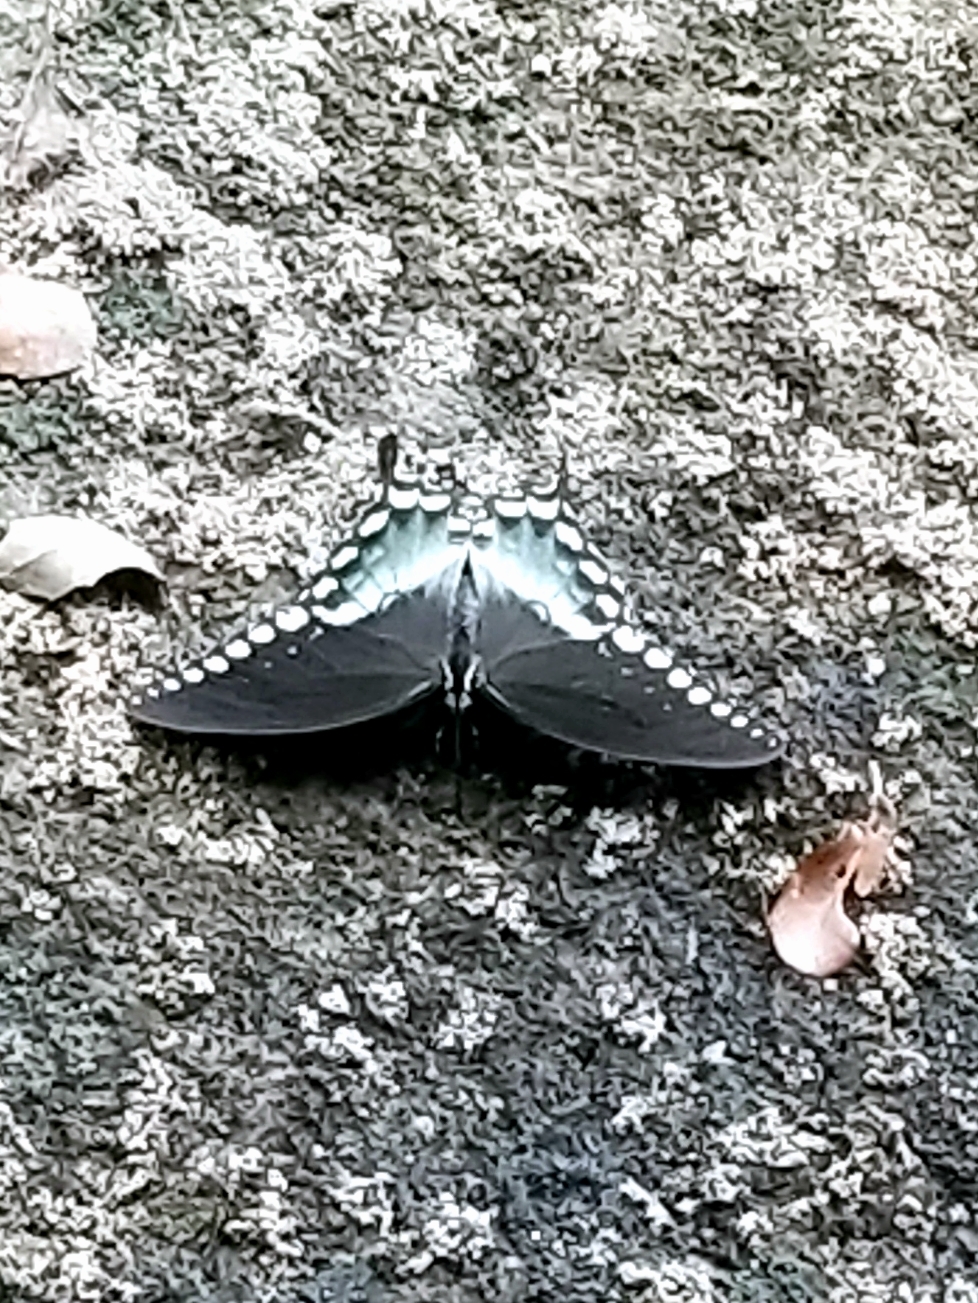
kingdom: Animalia
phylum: Arthropoda
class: Insecta
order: Lepidoptera
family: Papilionidae
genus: Papilio
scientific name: Papilio troilus
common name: Spicebush swallowtail
